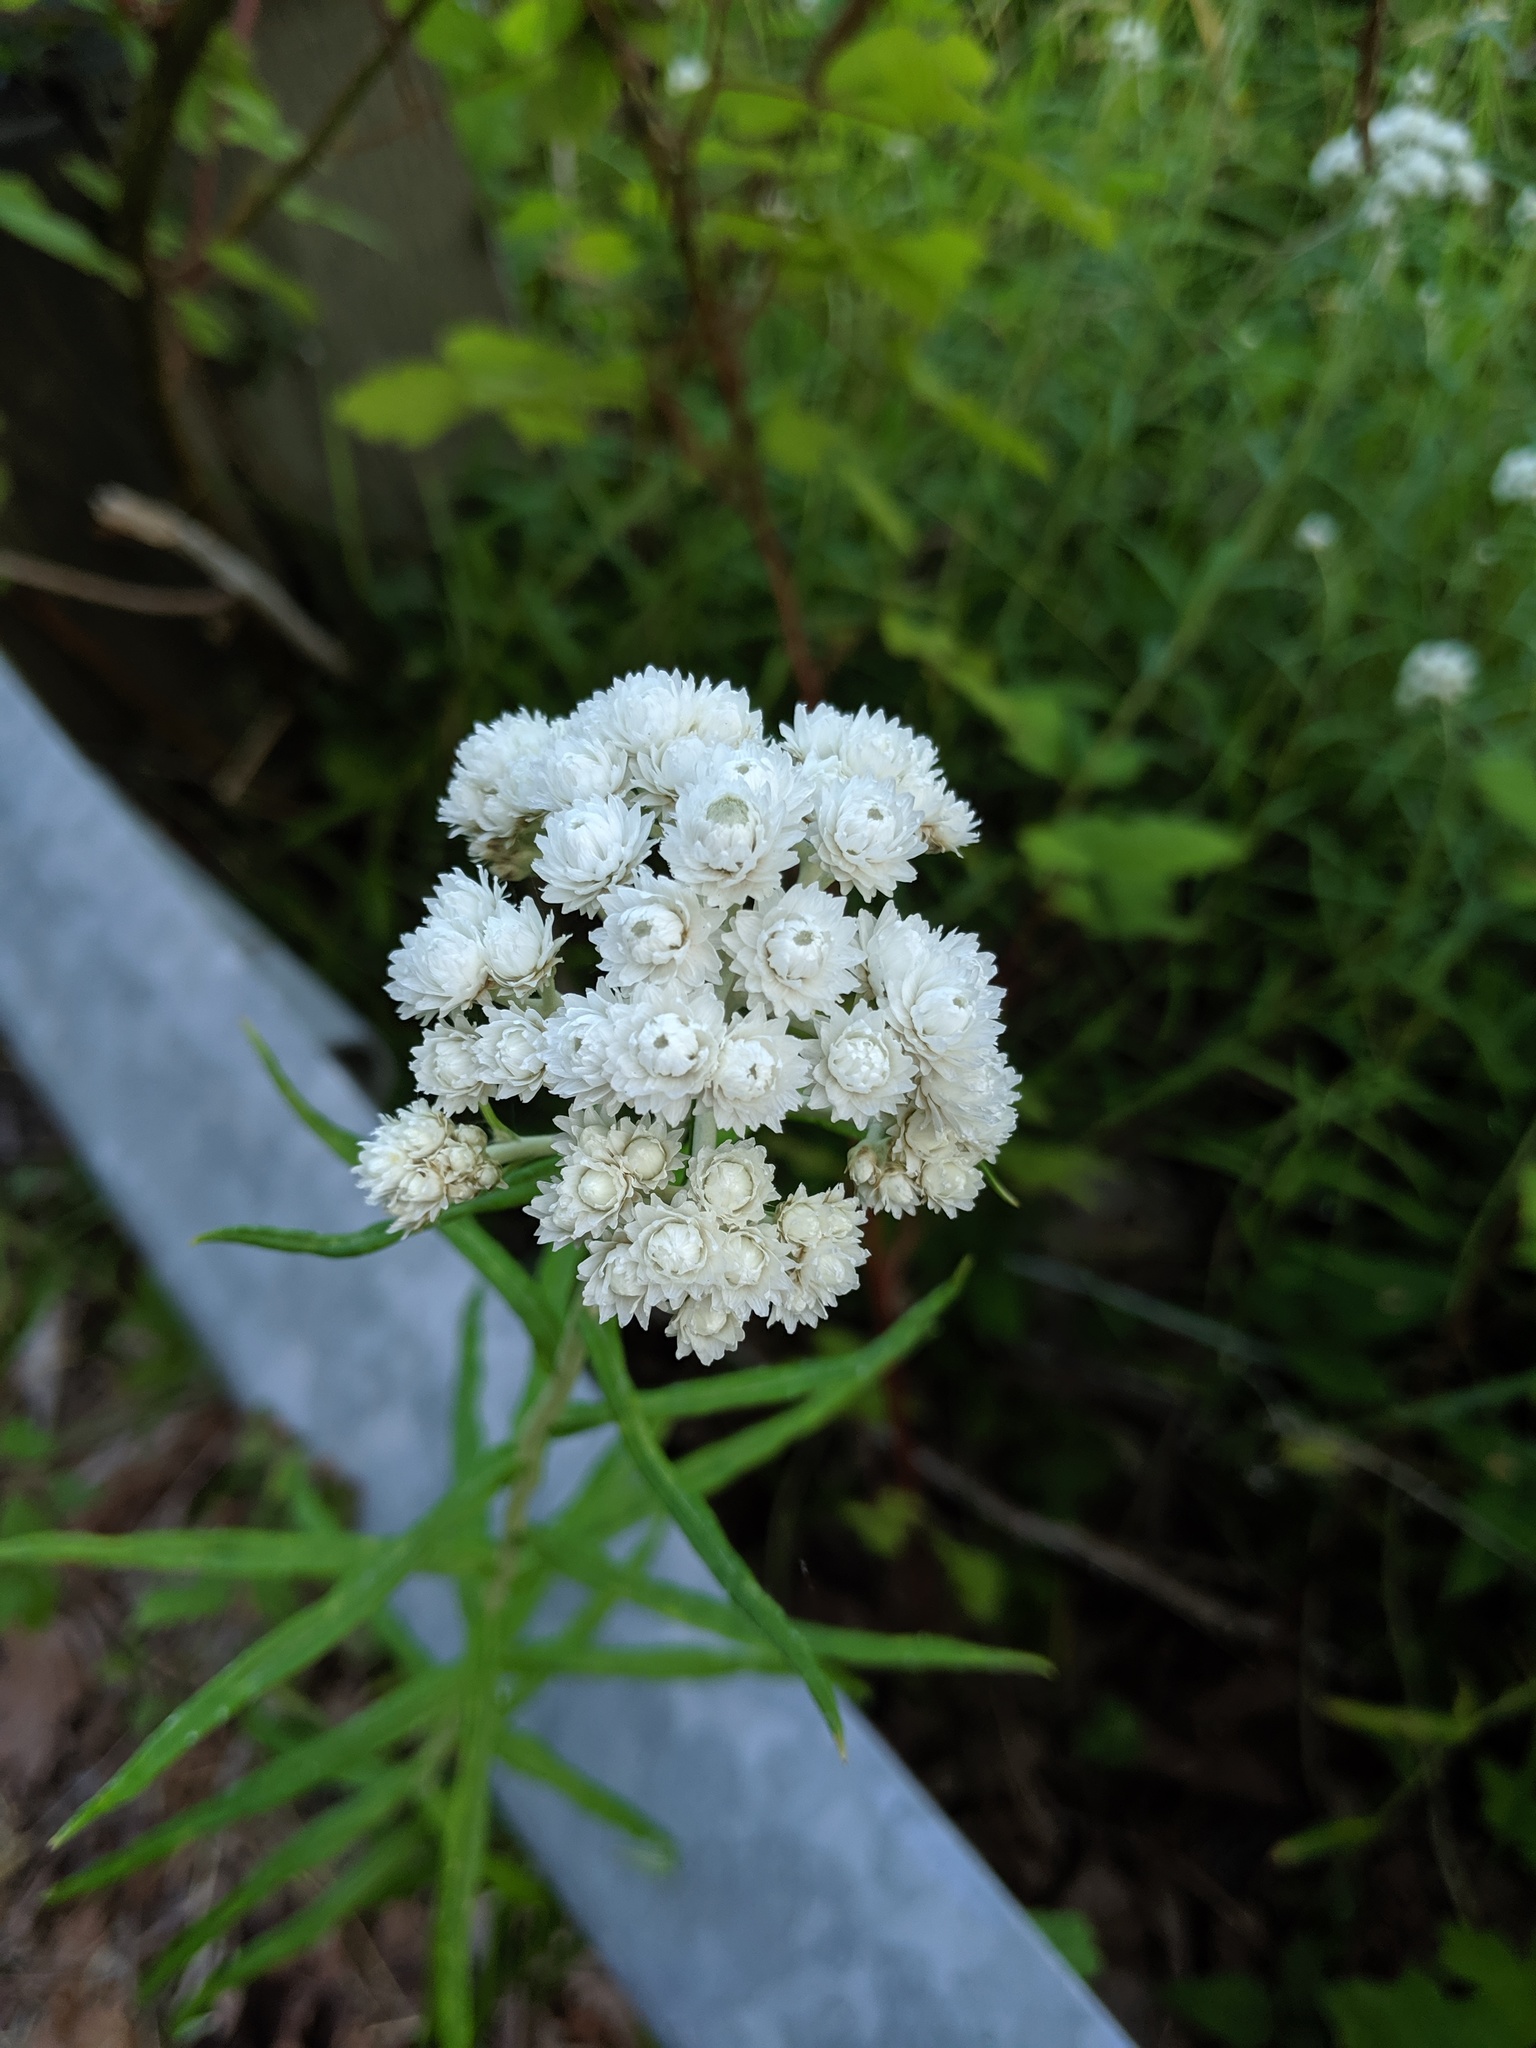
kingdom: Plantae
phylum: Tracheophyta
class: Magnoliopsida
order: Asterales
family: Asteraceae
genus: Anaphalis
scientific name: Anaphalis margaritacea
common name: Pearly everlasting
